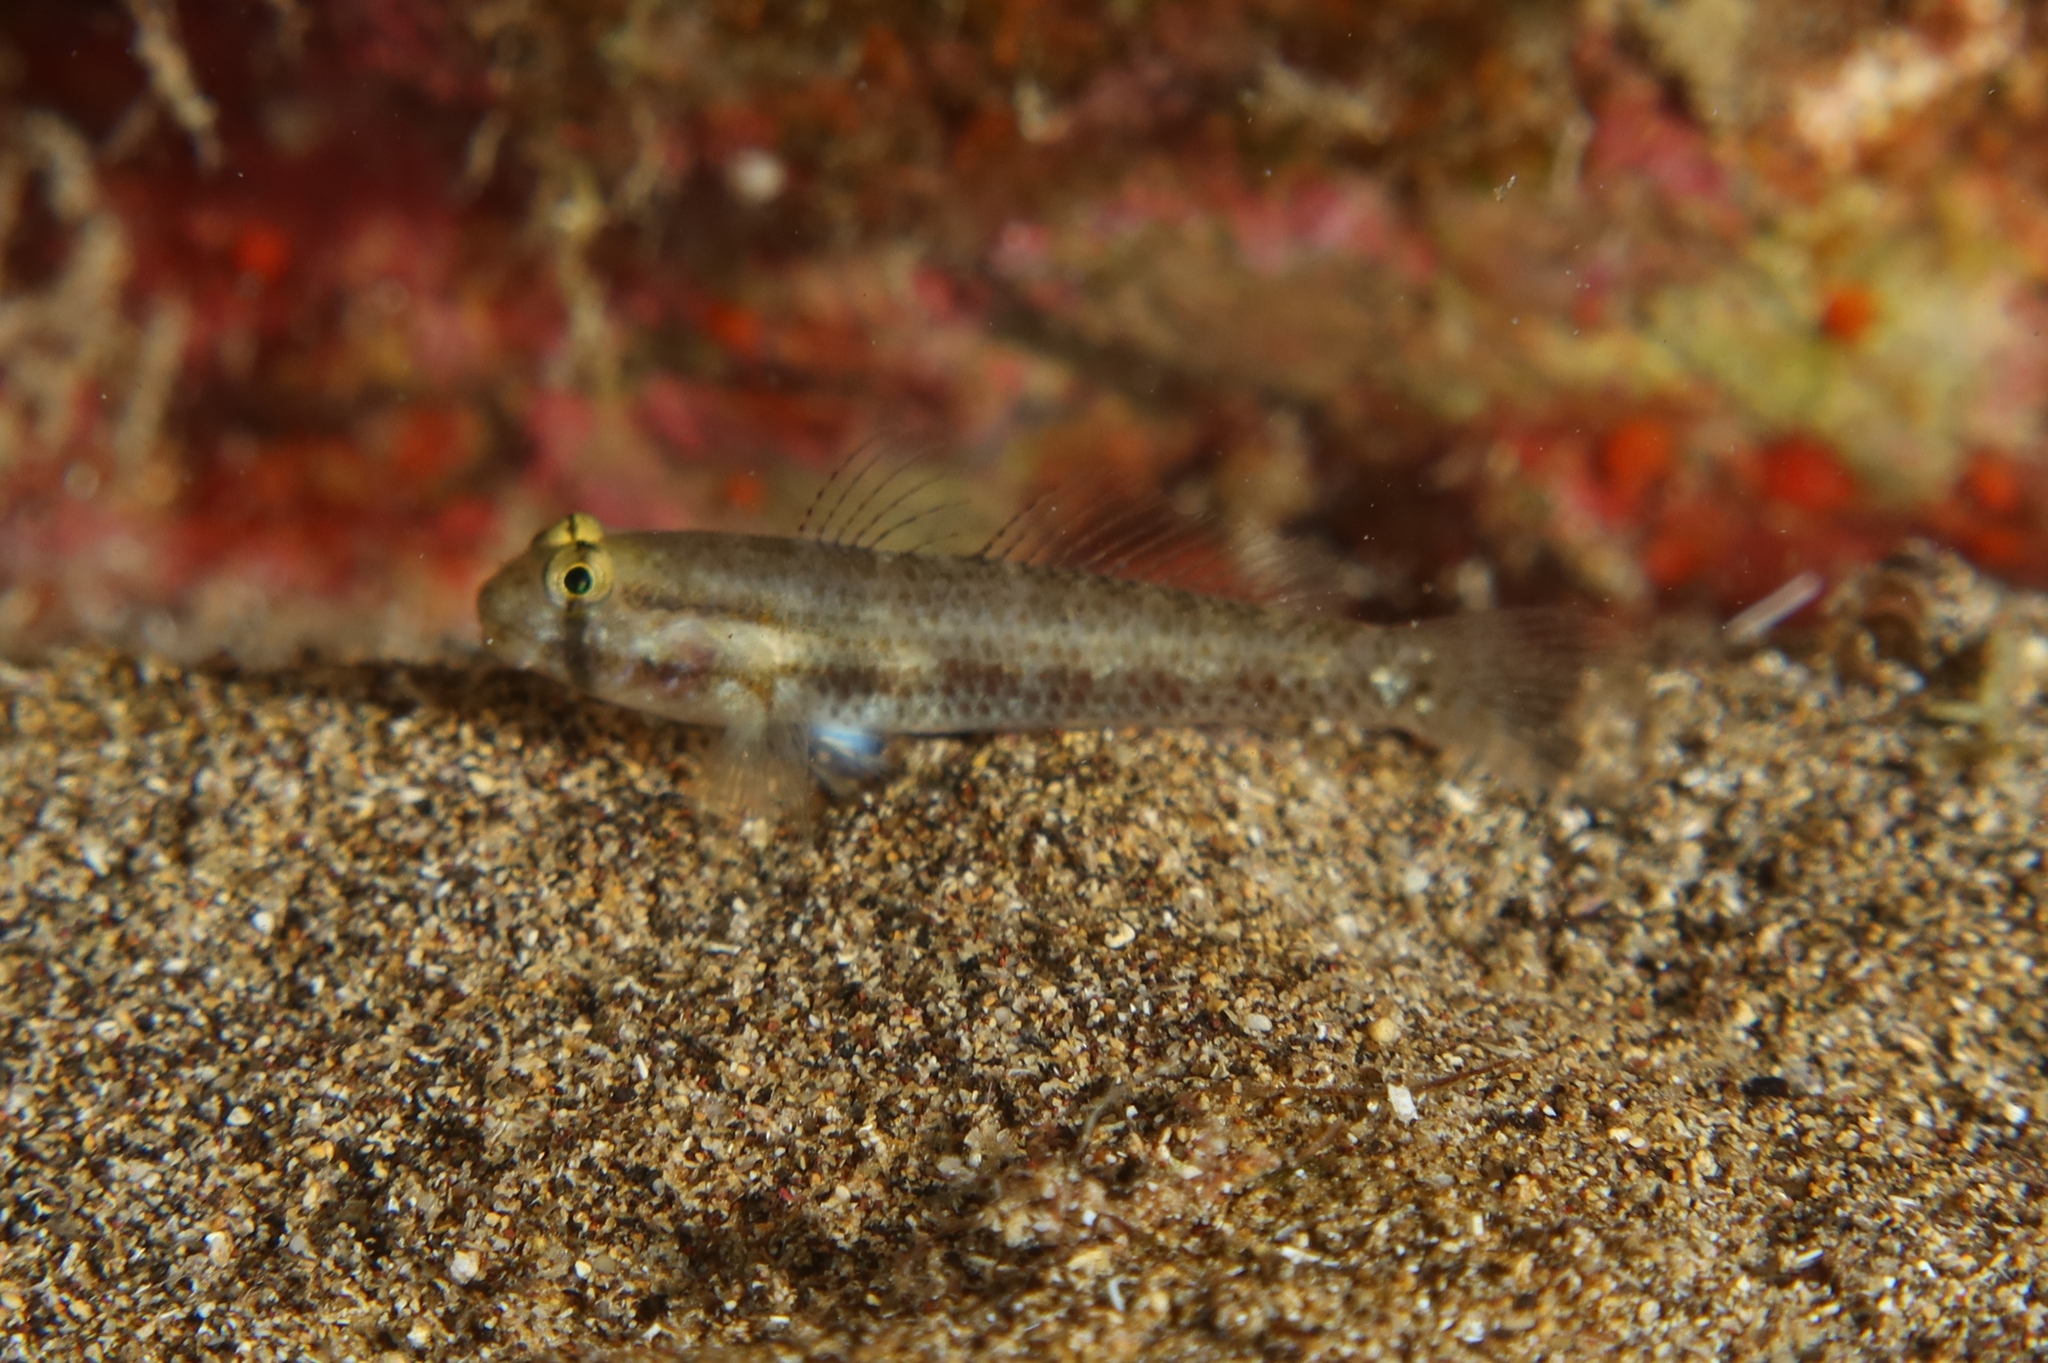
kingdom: Animalia
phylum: Chordata
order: Perciformes
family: Gobiidae
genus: Gnatholepis
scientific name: Gnatholepis thompsoni
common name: Goldspot goby
